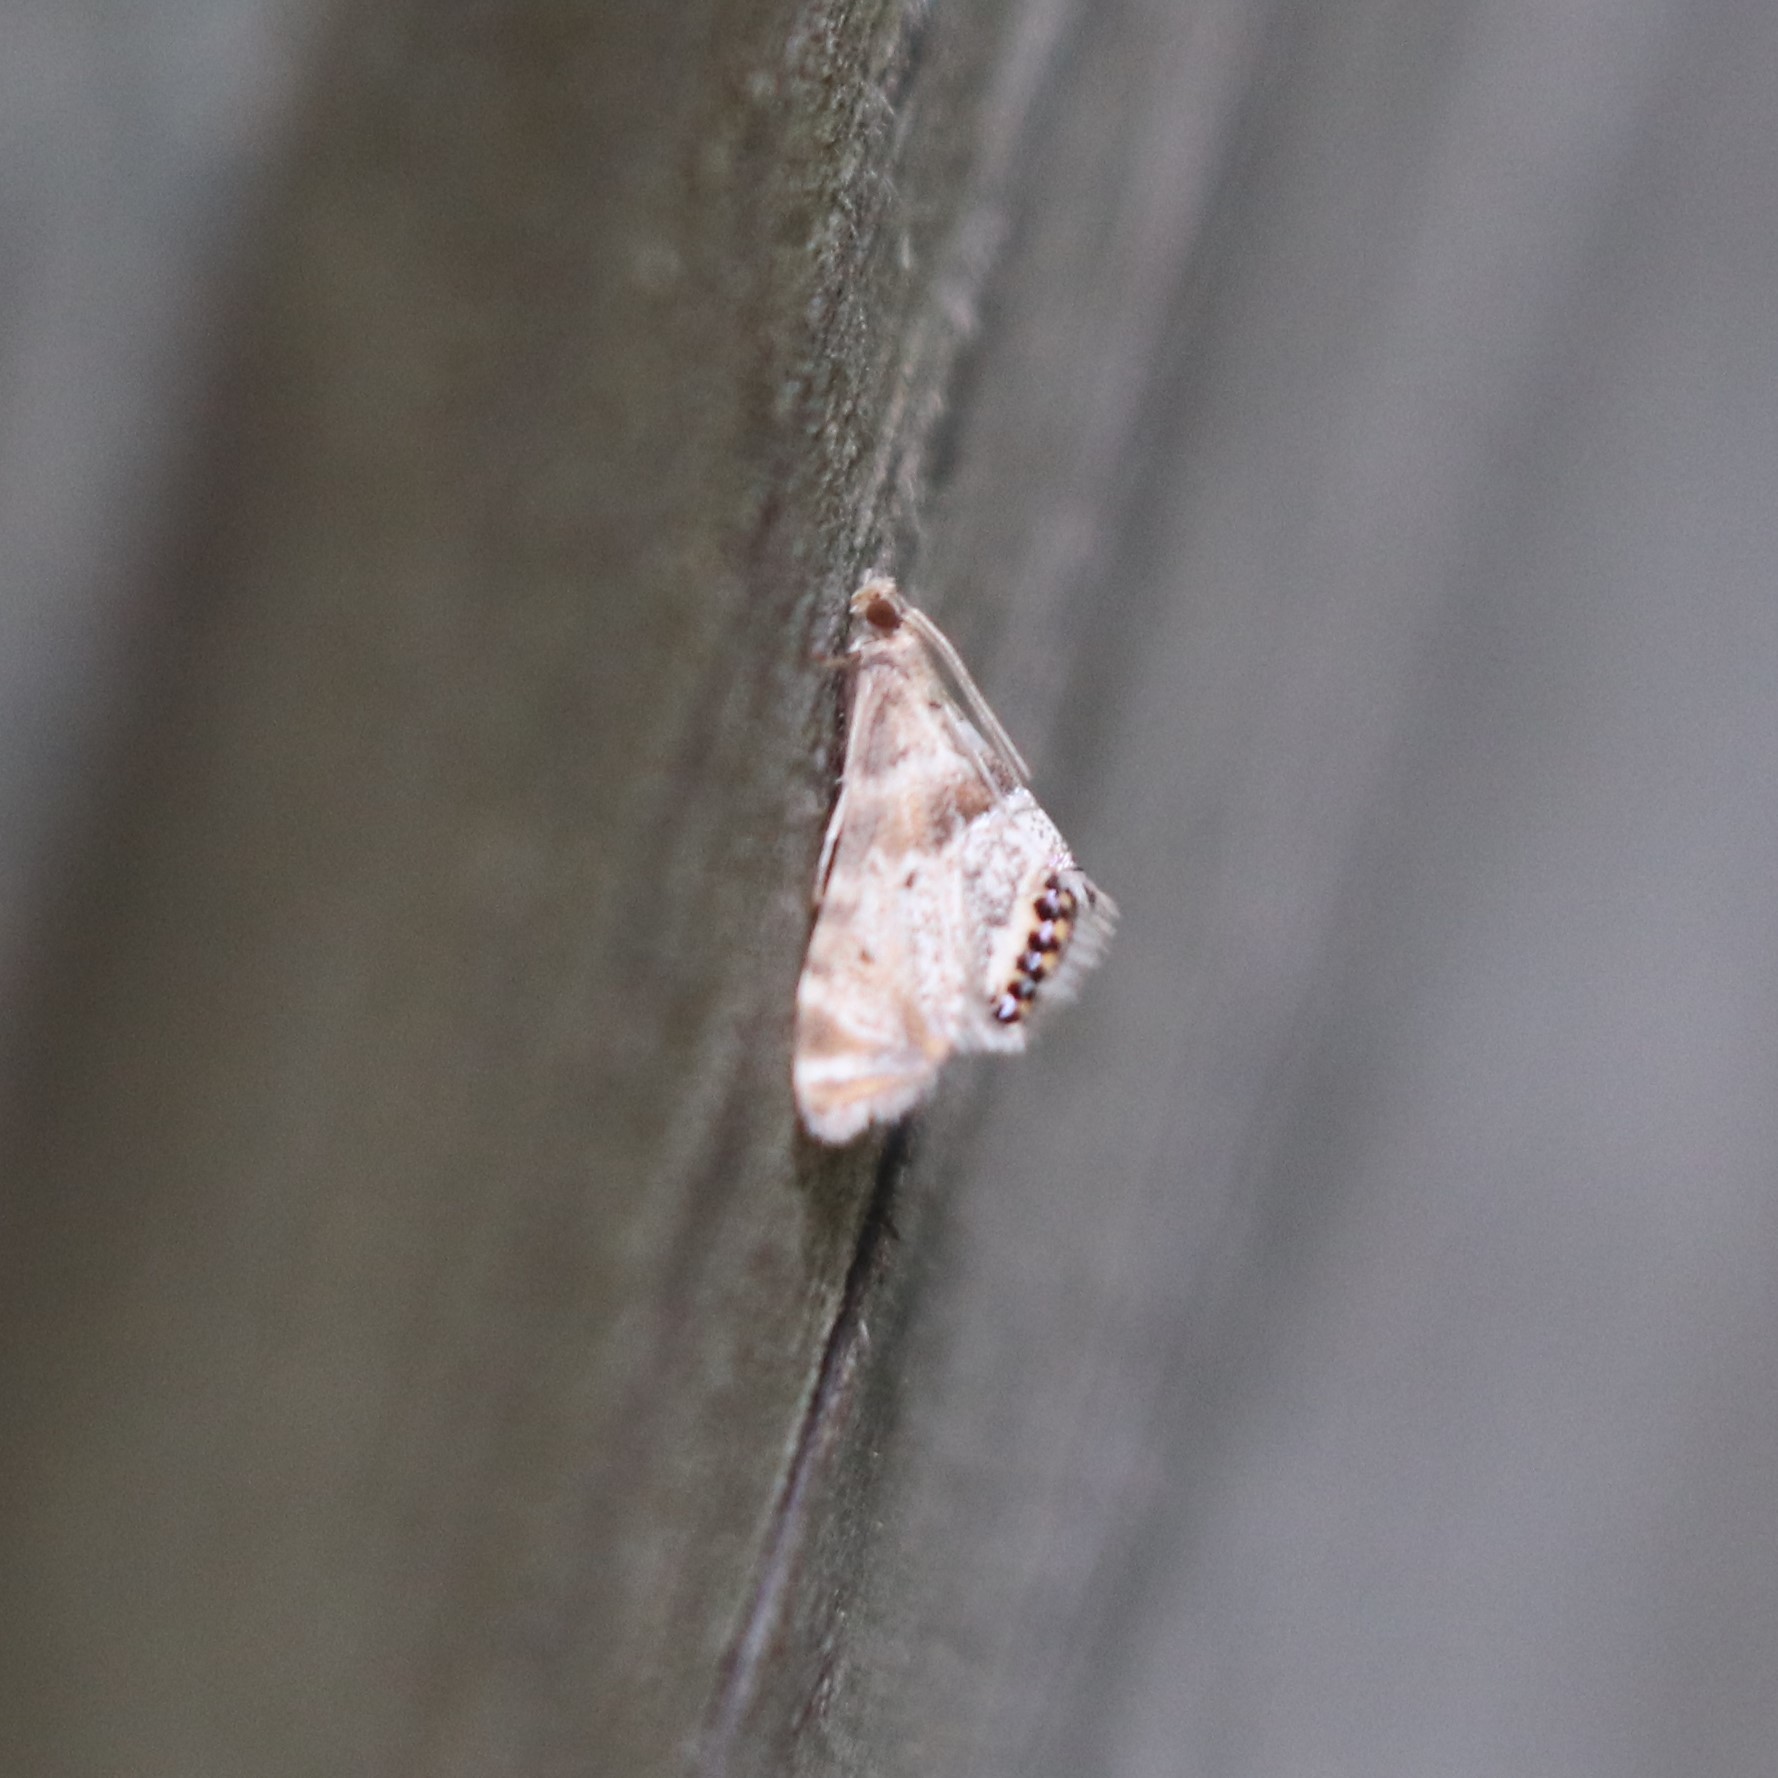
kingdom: Animalia
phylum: Arthropoda
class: Insecta
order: Lepidoptera
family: Crambidae
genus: Petrophila
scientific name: Petrophila fulicalis
